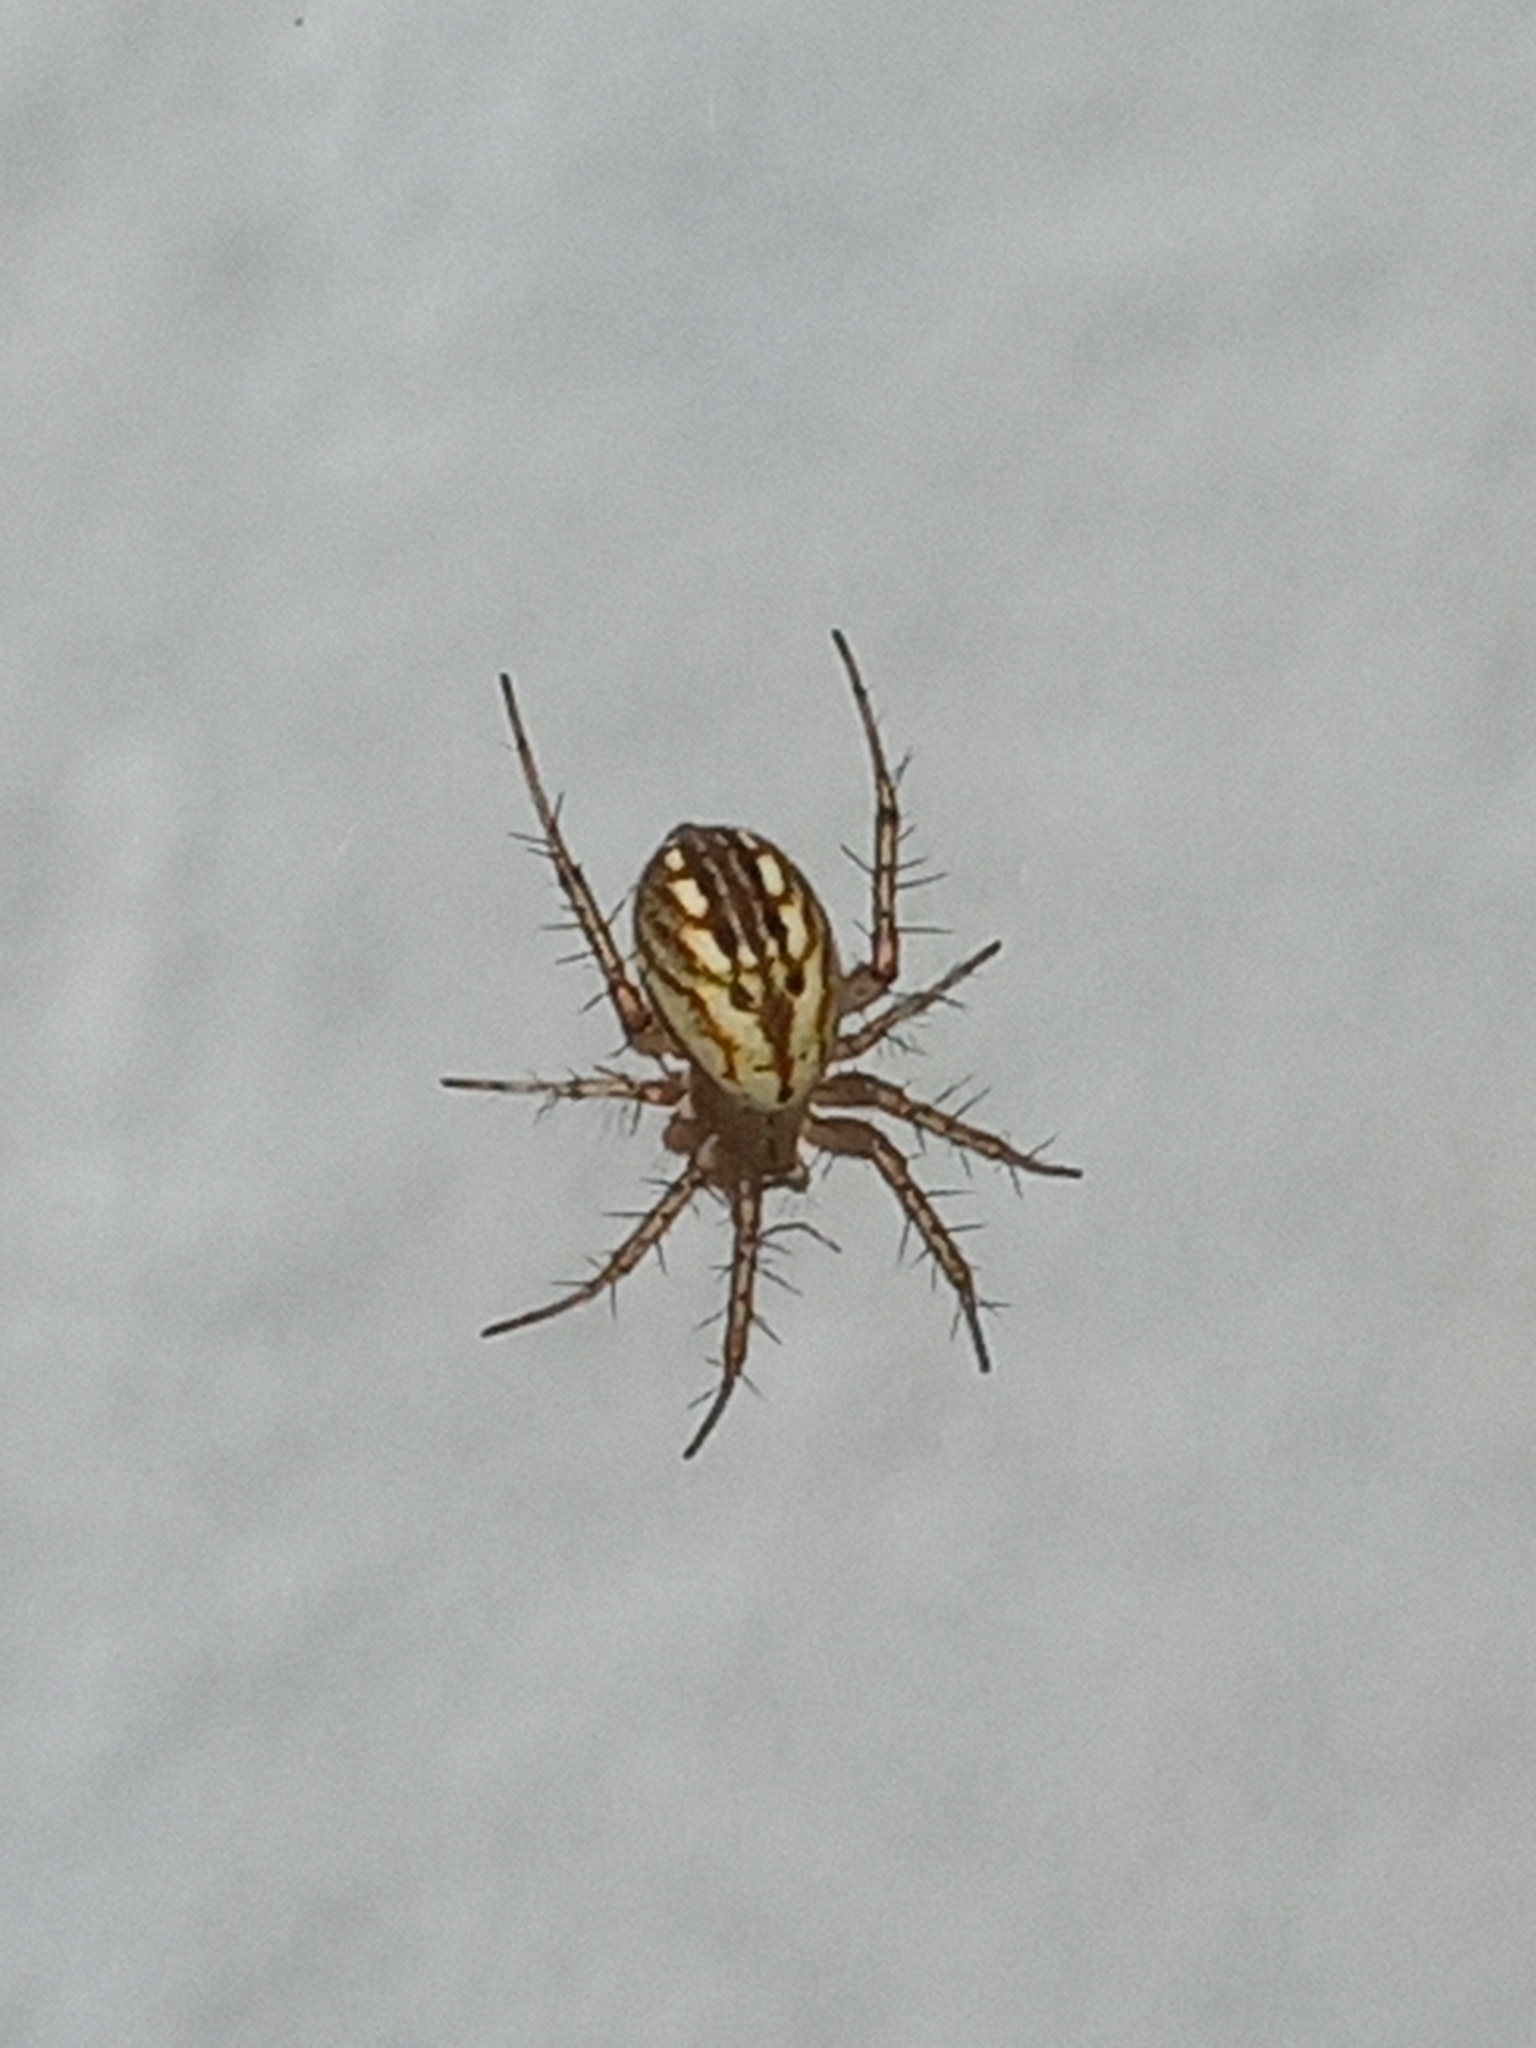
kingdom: Animalia
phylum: Arthropoda
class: Arachnida
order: Araneae
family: Araneidae
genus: Mangora
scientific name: Mangora gibberosa
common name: Lined orbweaver
